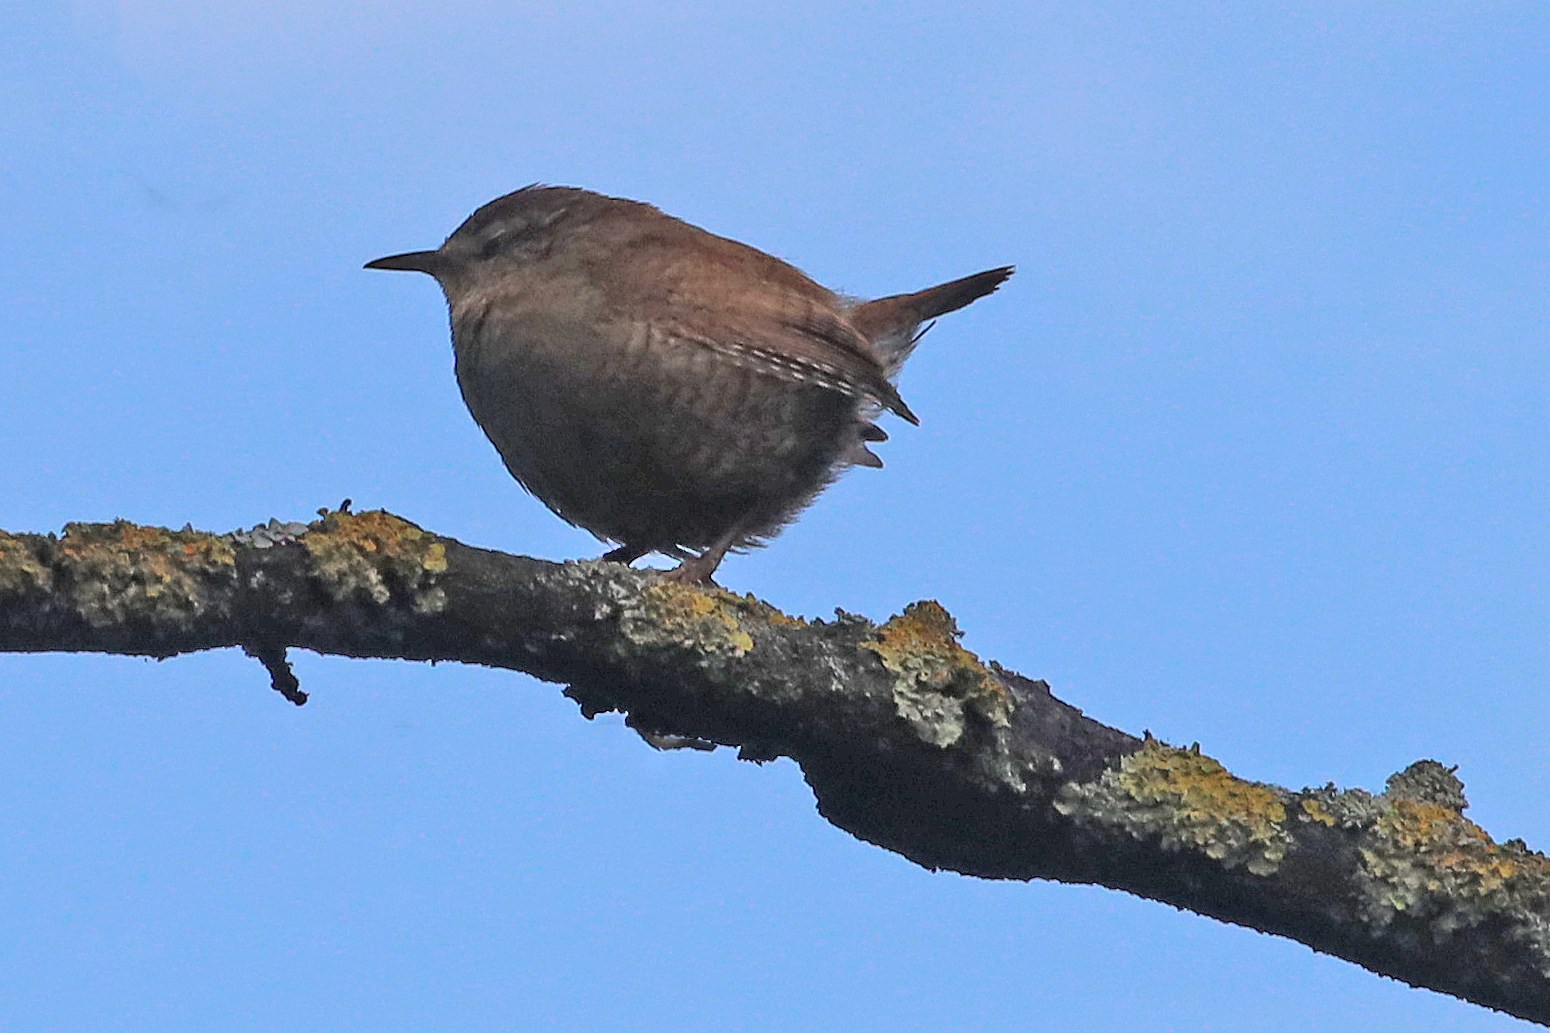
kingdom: Animalia
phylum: Chordata
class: Aves
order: Passeriformes
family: Troglodytidae
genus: Troglodytes
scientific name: Troglodytes troglodytes
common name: Eurasian wren
